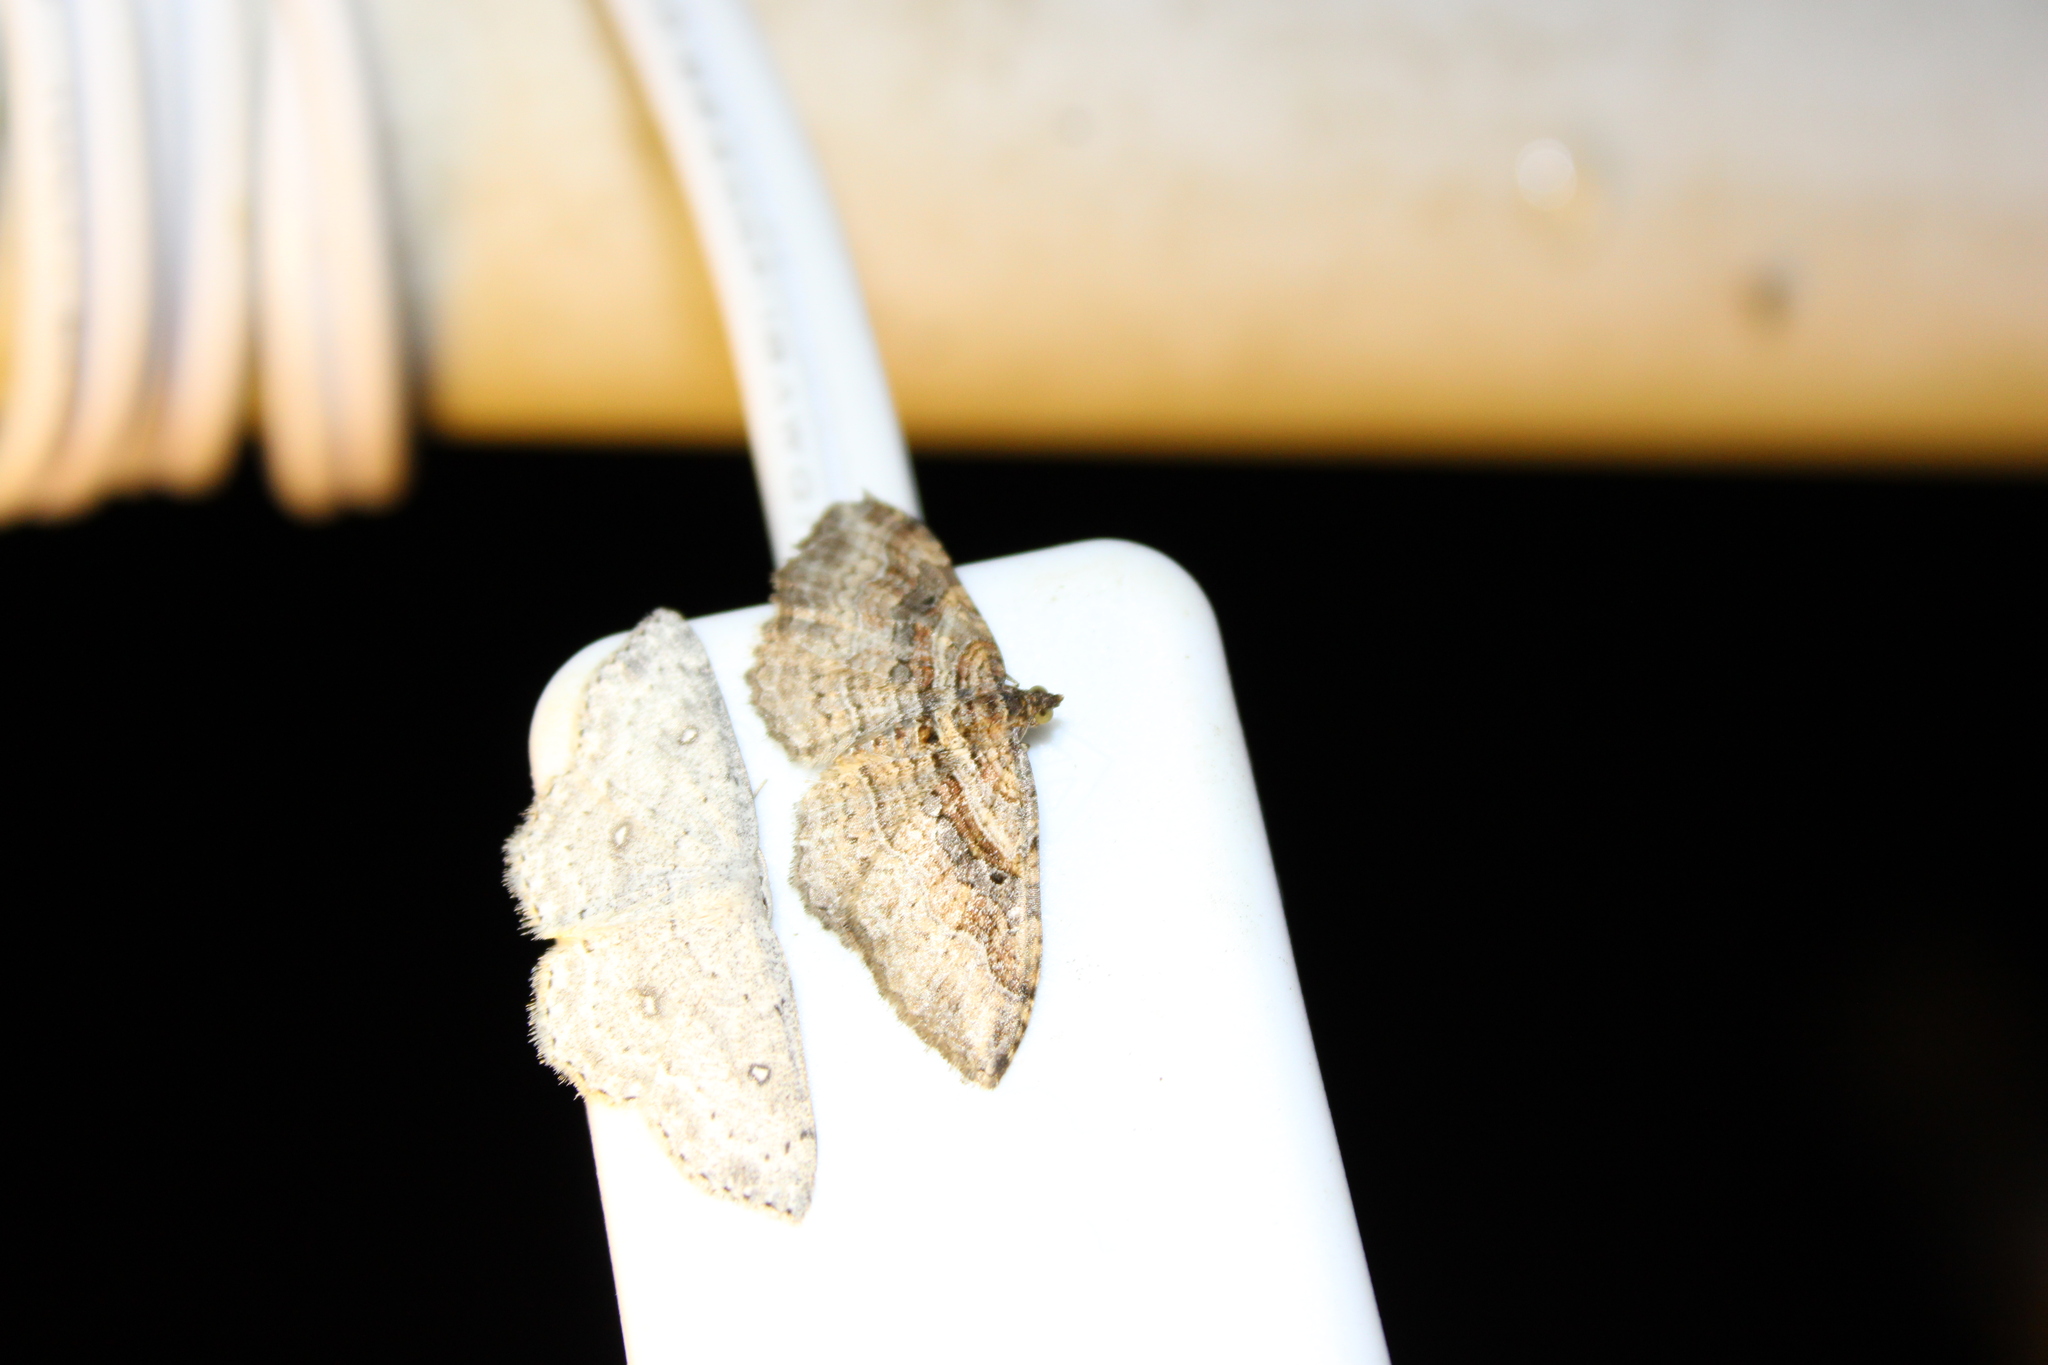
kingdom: Animalia
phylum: Arthropoda
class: Insecta
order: Lepidoptera
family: Geometridae
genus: Costaconvexa
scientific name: Costaconvexa centrostrigaria
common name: Bent-line carpet
